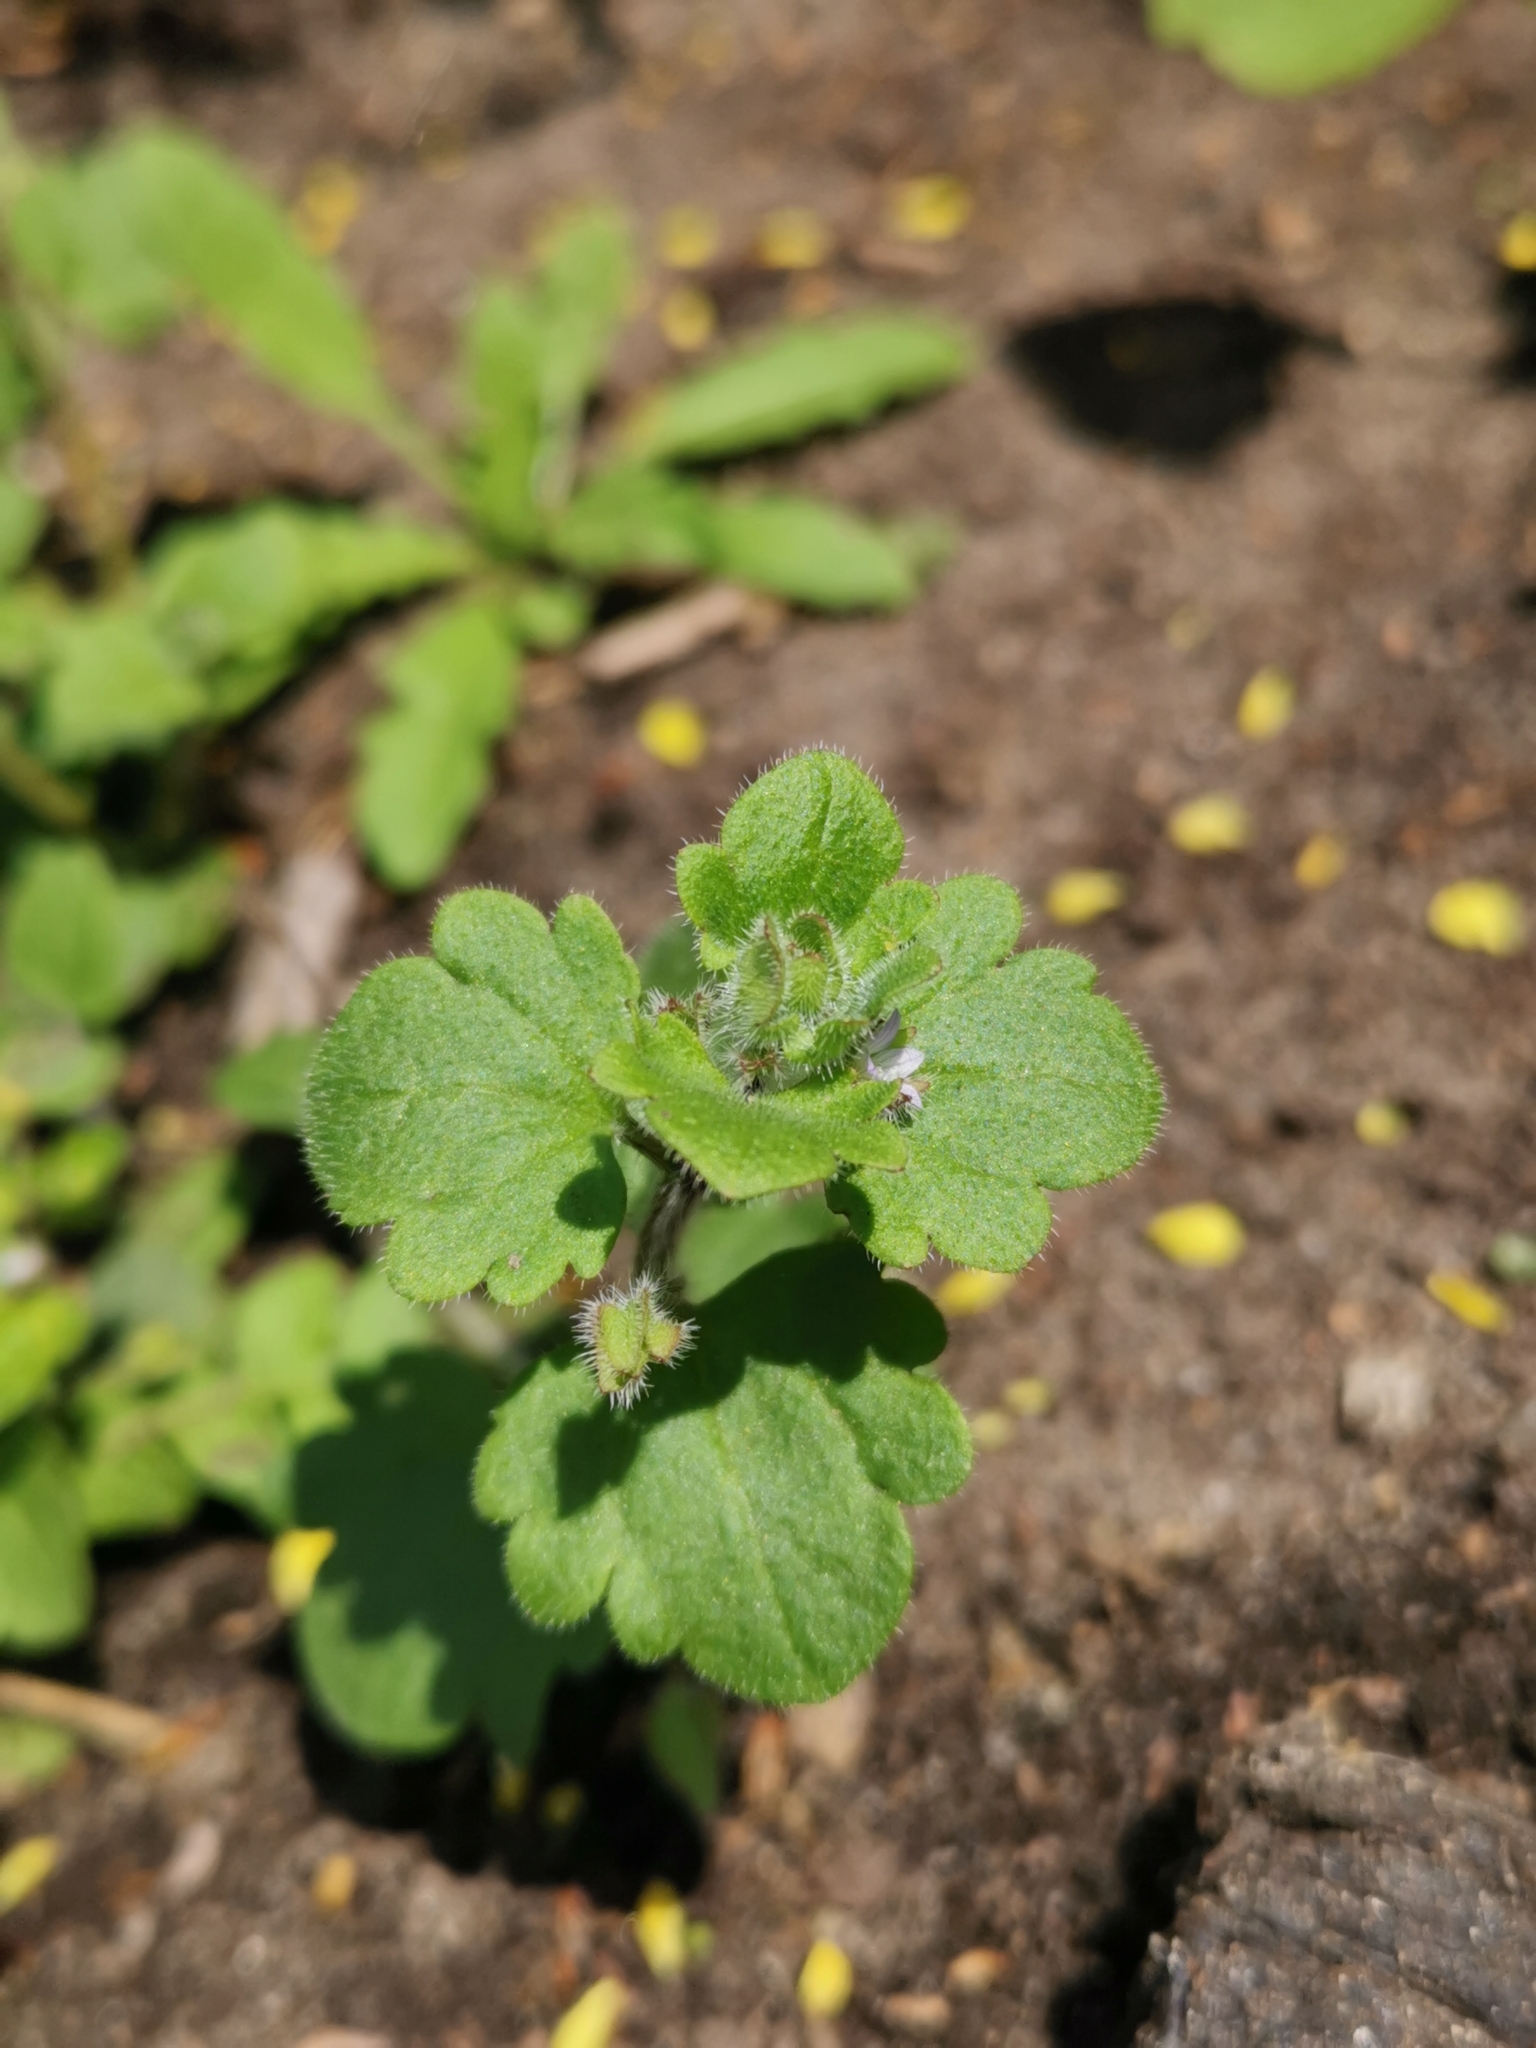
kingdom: Plantae
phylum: Tracheophyta
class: Magnoliopsida
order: Lamiales
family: Plantaginaceae
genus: Veronica
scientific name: Veronica sublobata
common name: False ivy-leaved speedwell
